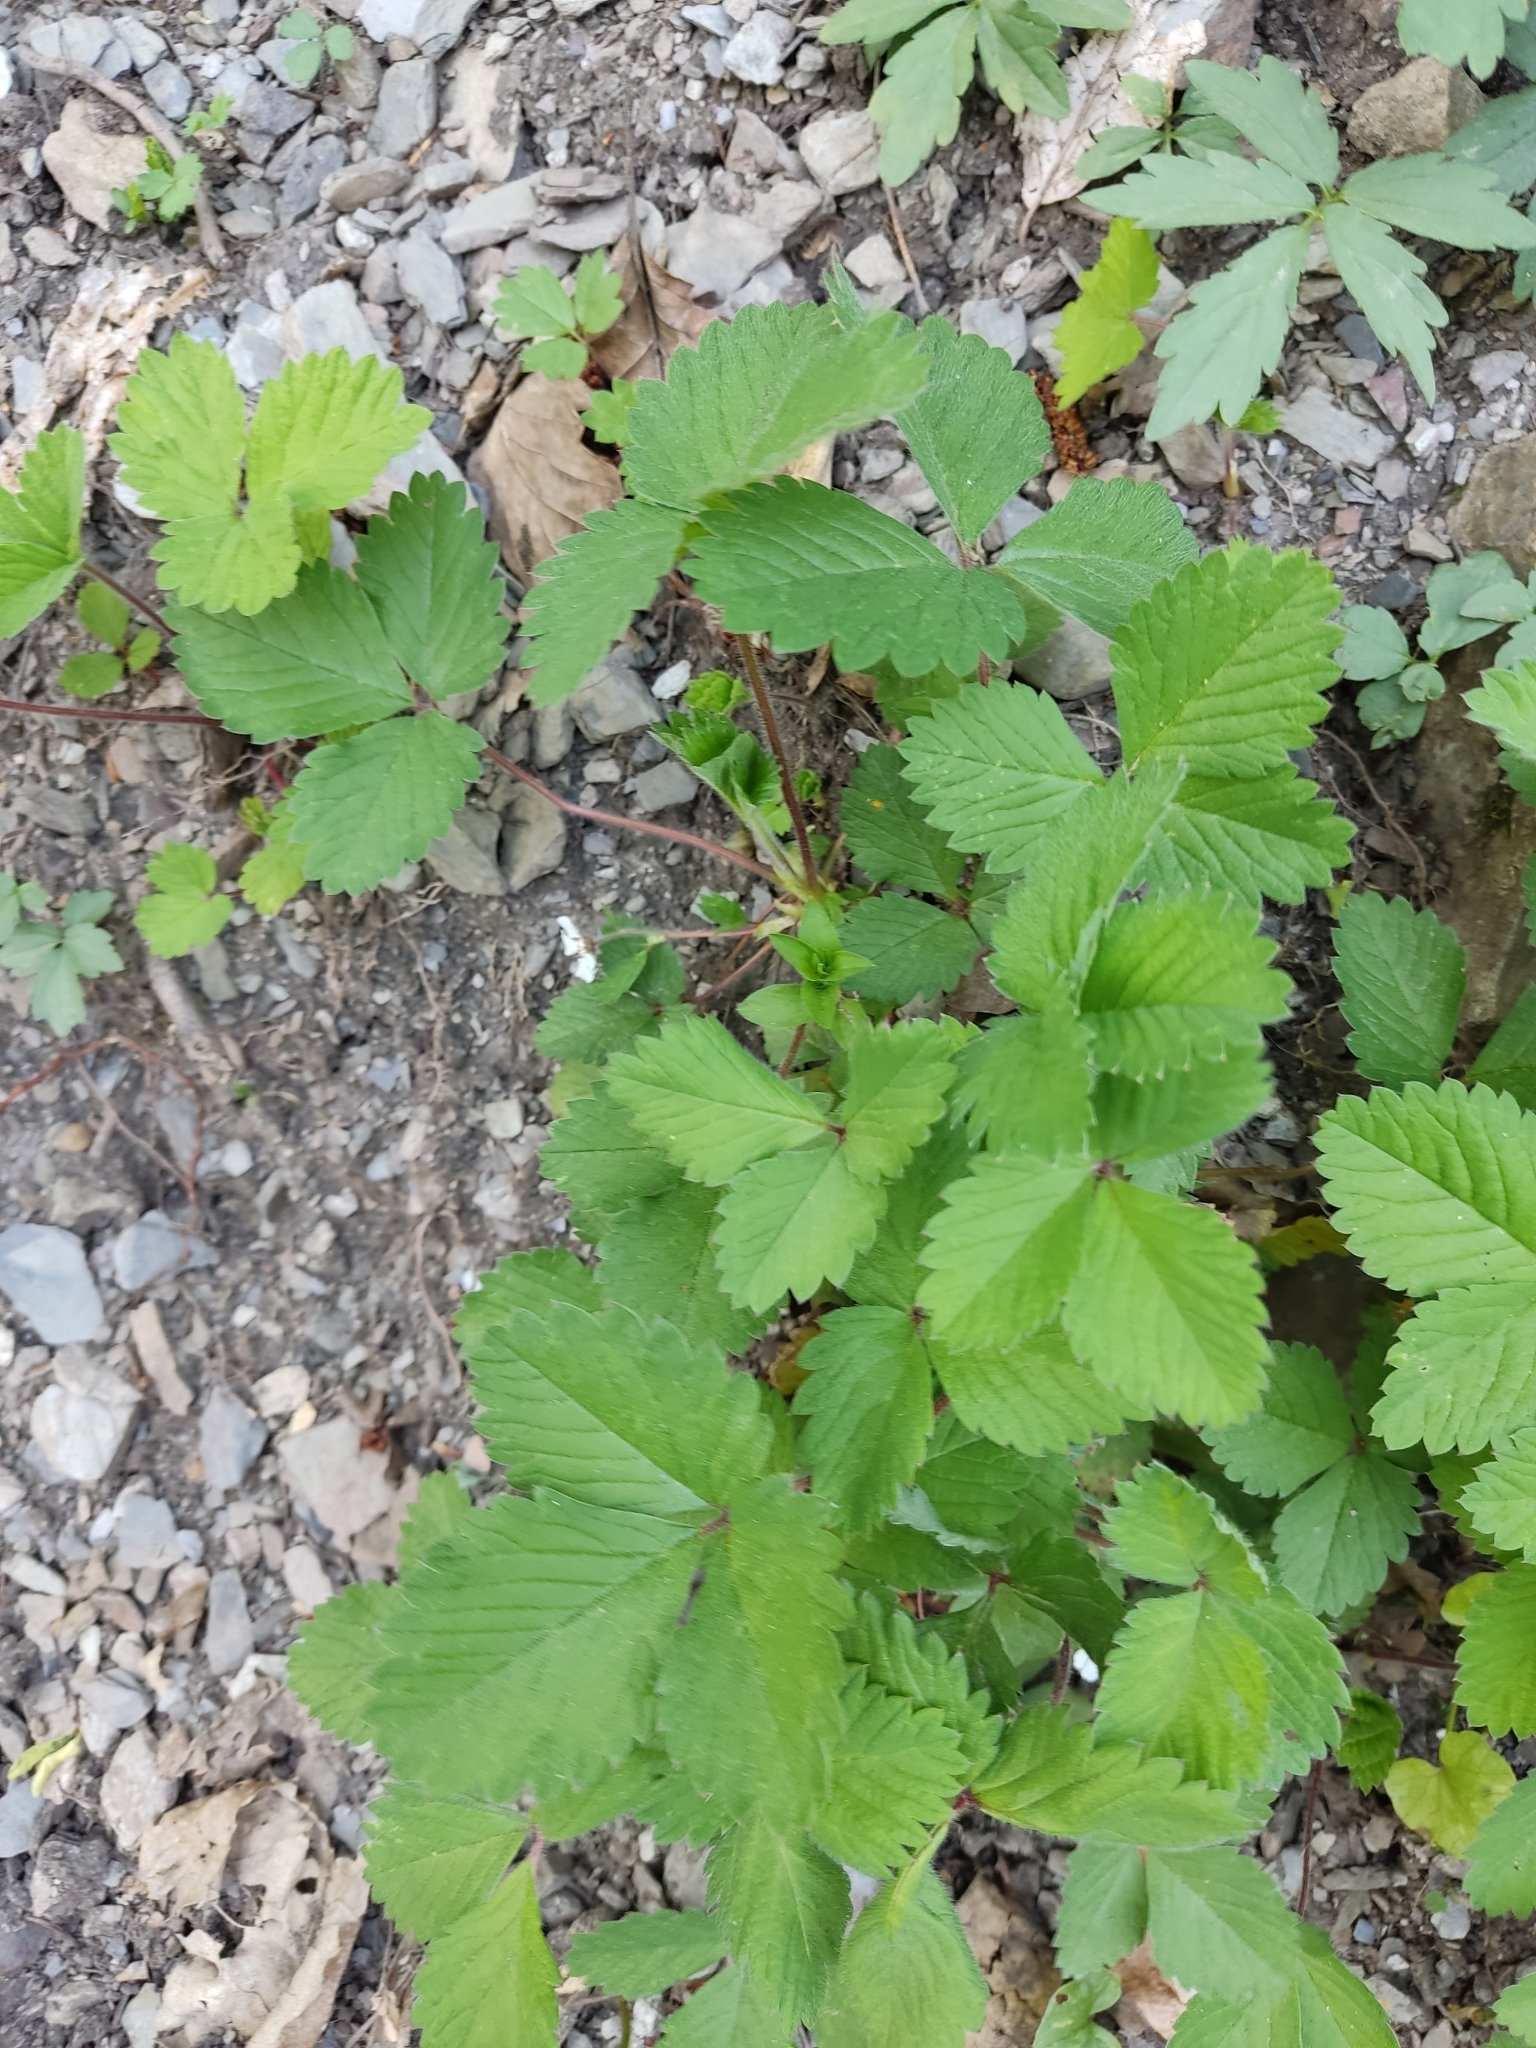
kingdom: Plantae
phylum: Tracheophyta
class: Magnoliopsida
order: Rosales
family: Rosaceae
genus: Potentilla
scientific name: Potentilla micrantha
